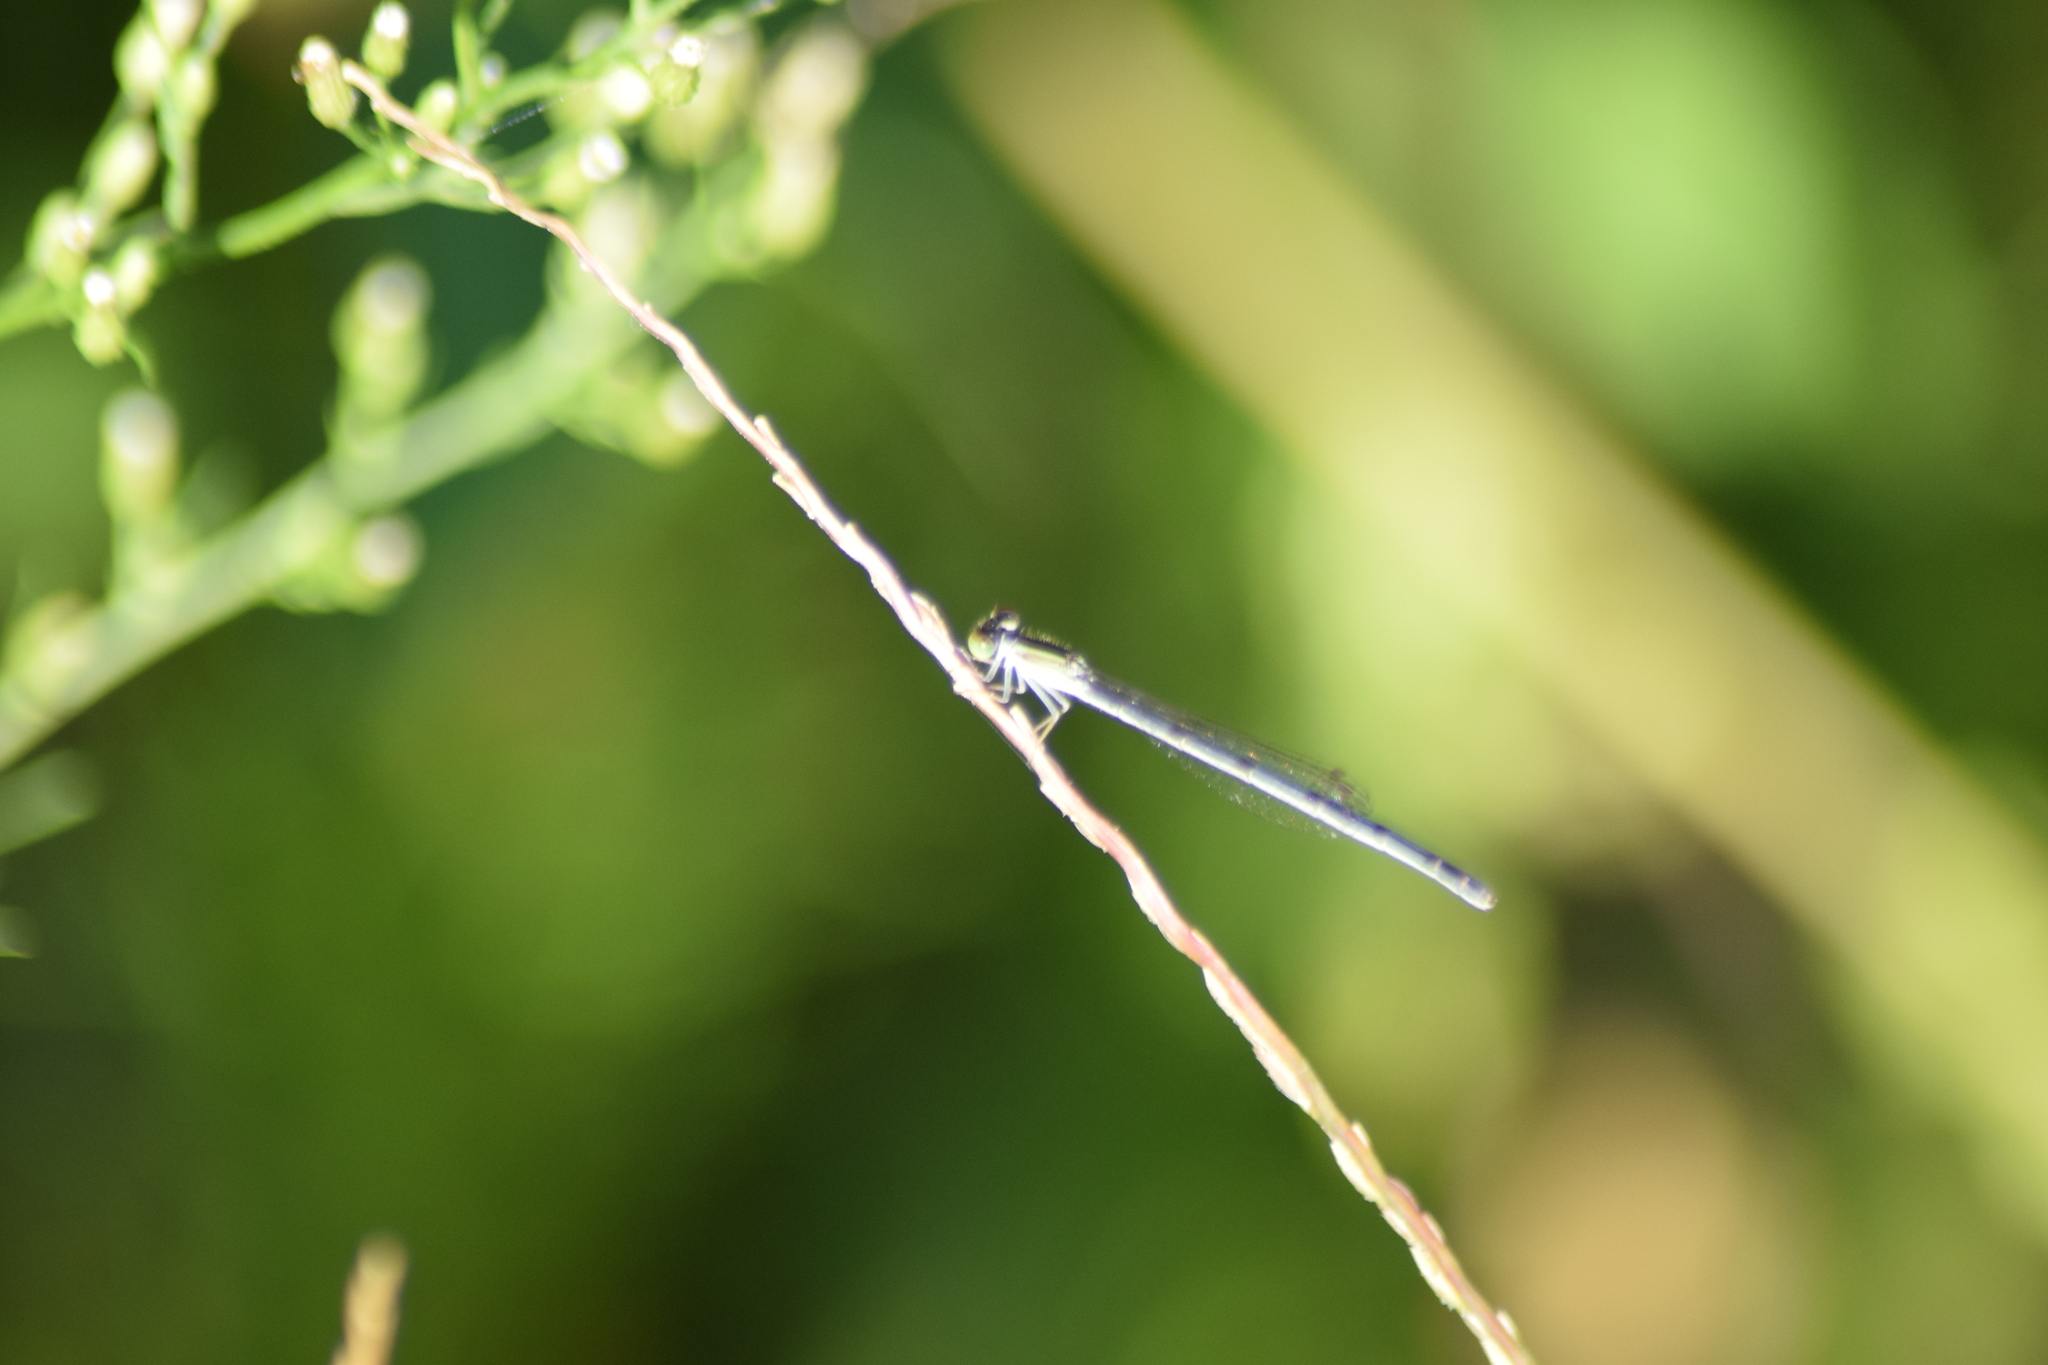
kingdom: Animalia
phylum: Arthropoda
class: Insecta
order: Odonata
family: Coenagrionidae
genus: Ischnura
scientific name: Ischnura hastata
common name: Citrine forktail
